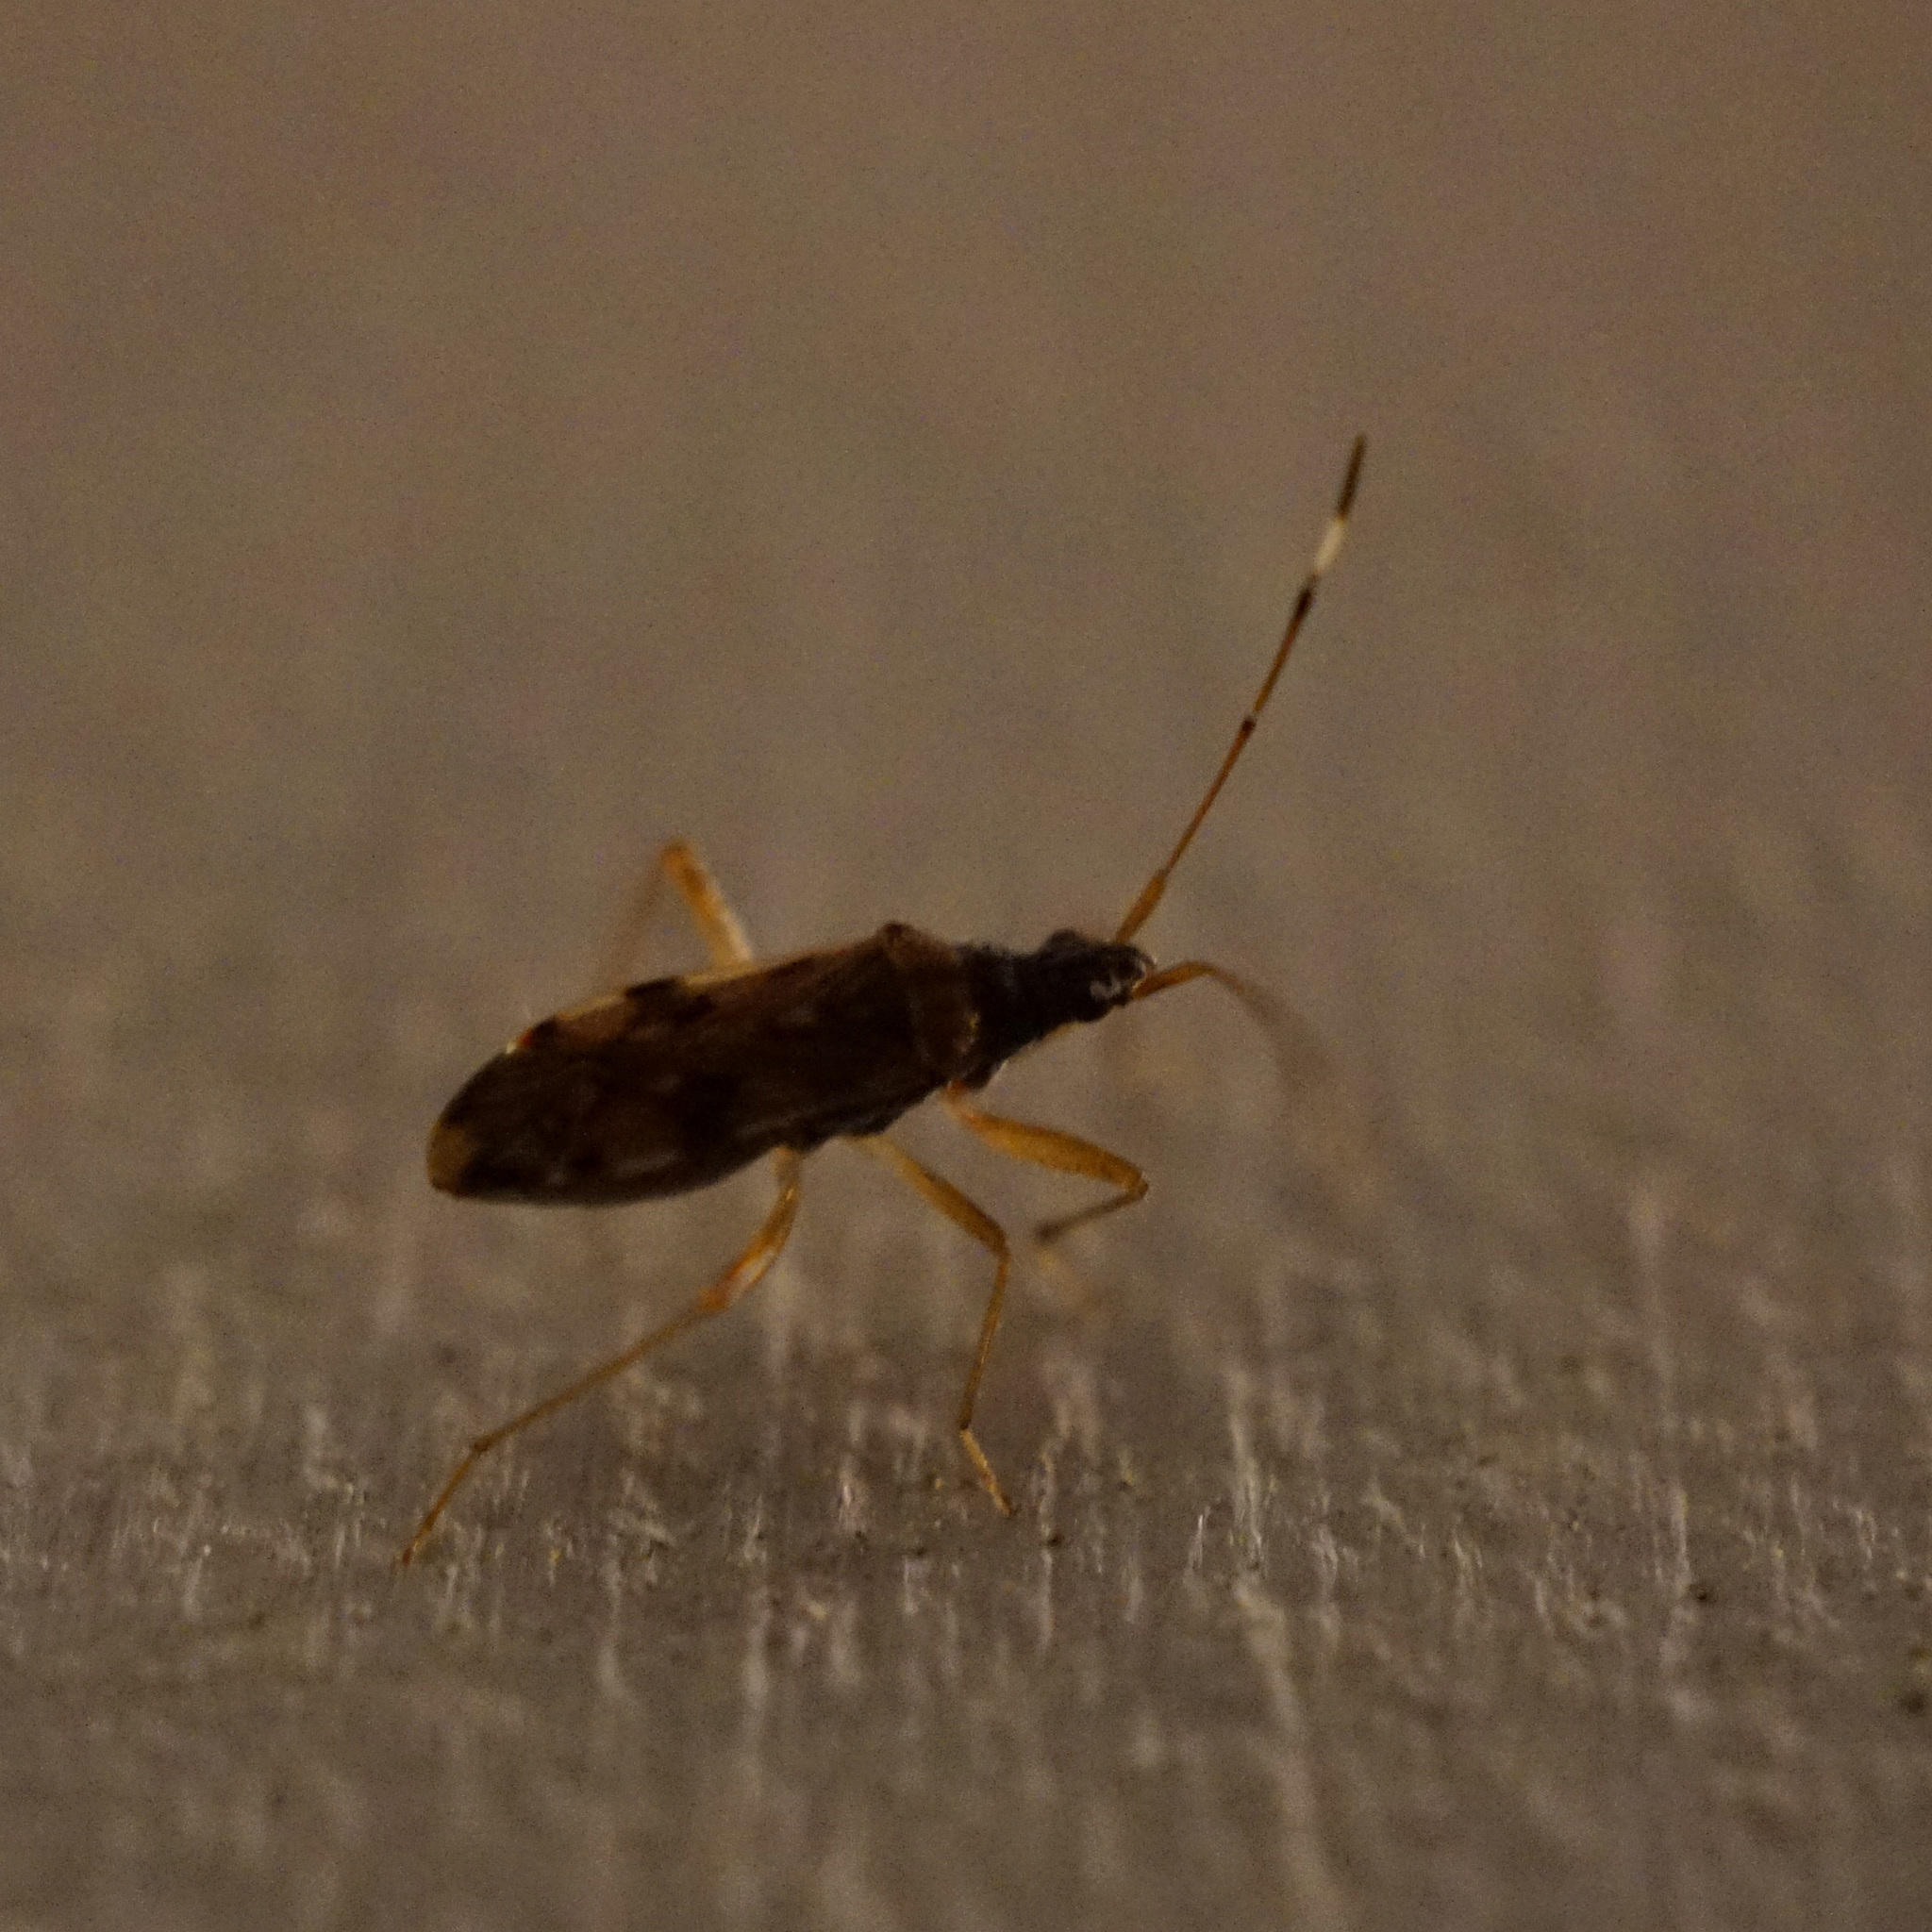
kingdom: Animalia
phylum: Arthropoda
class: Insecta
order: Hemiptera
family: Rhyparochromidae
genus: Ozophora
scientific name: Ozophora picturata
